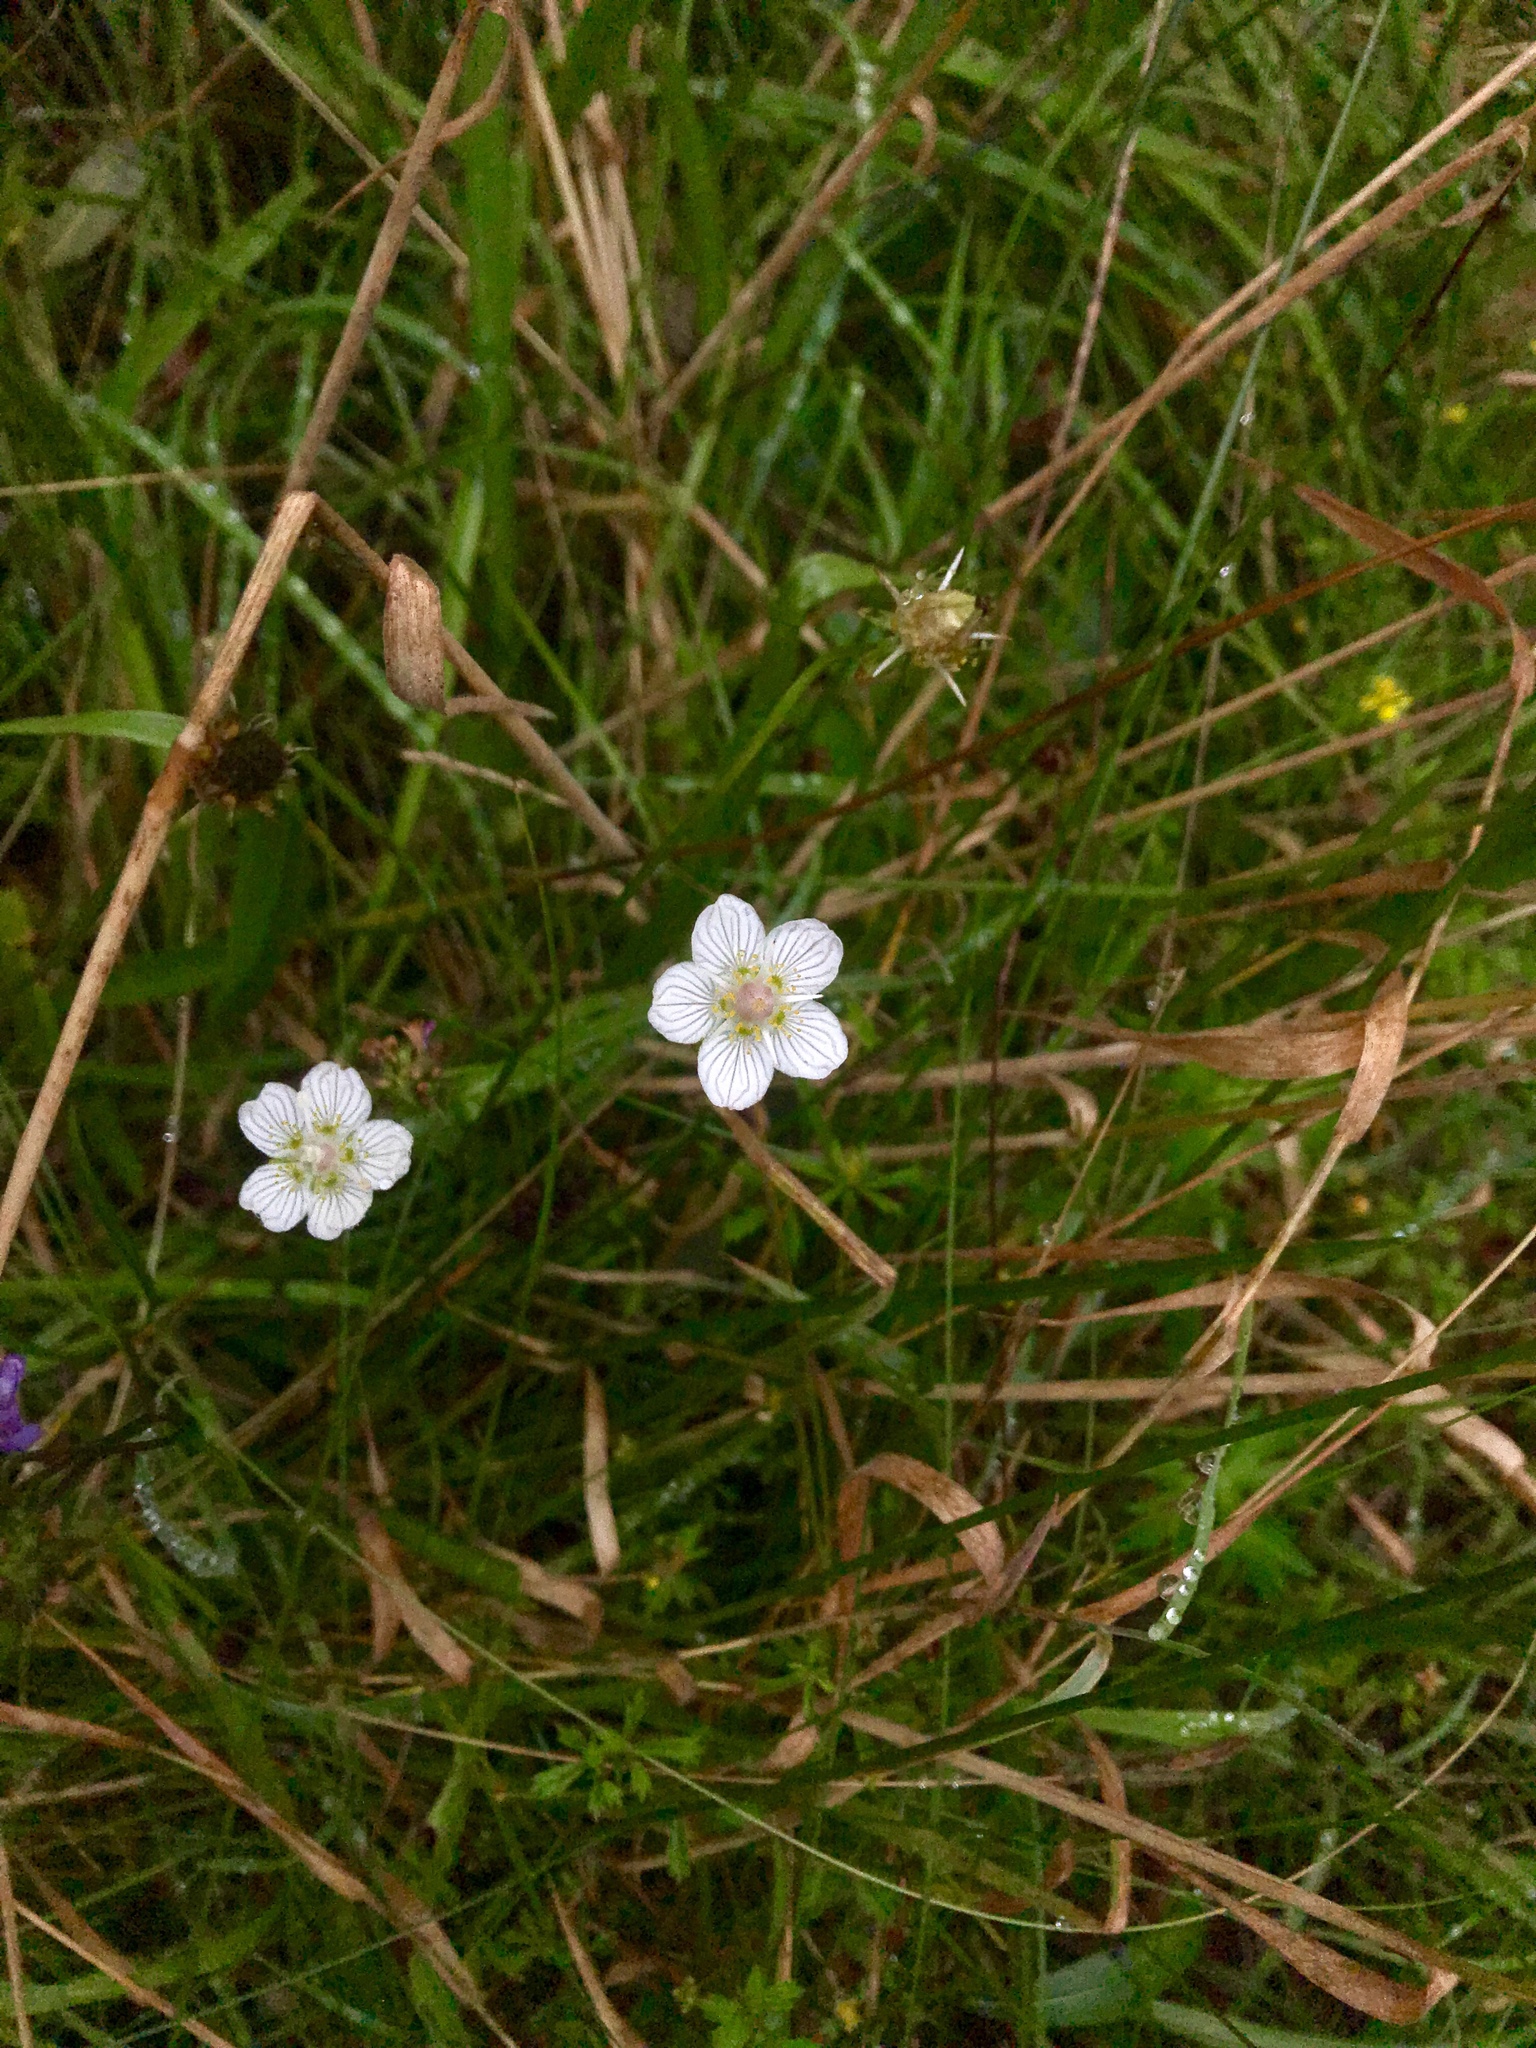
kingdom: Plantae
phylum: Tracheophyta
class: Magnoliopsida
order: Celastrales
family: Parnassiaceae
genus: Parnassia
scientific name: Parnassia palustris
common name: Grass-of-parnassus
